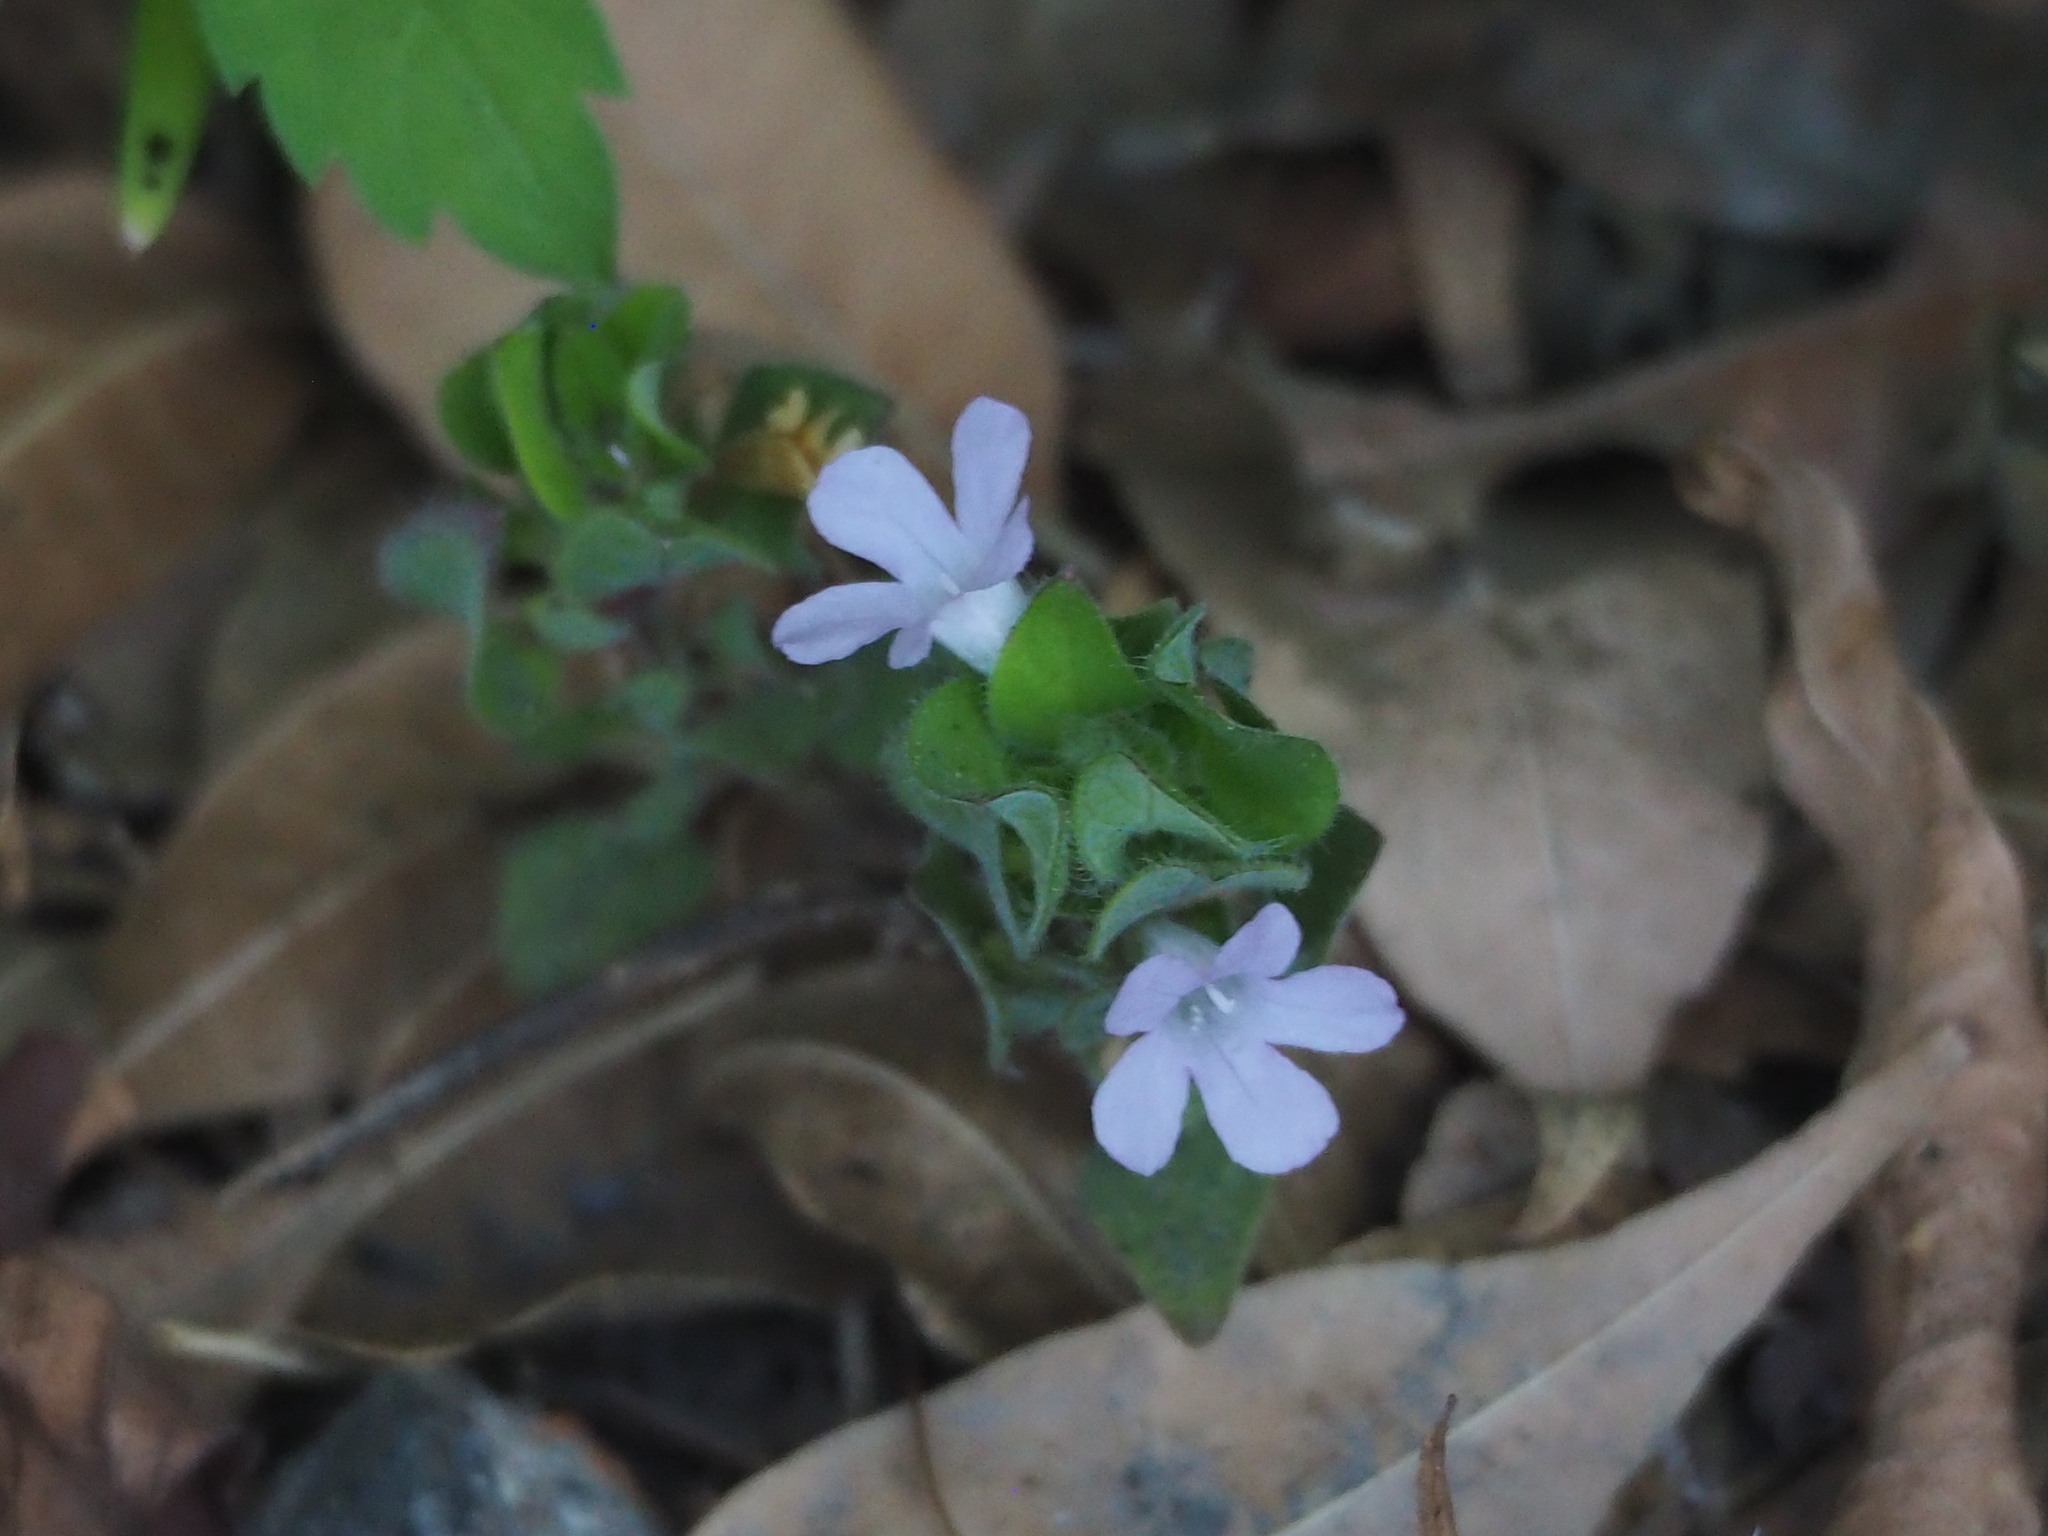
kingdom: Plantae
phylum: Tracheophyta
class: Magnoliopsida
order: Lamiales
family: Acanthaceae
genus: Ruellia
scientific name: Ruellia blechum
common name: Browne's blechum
